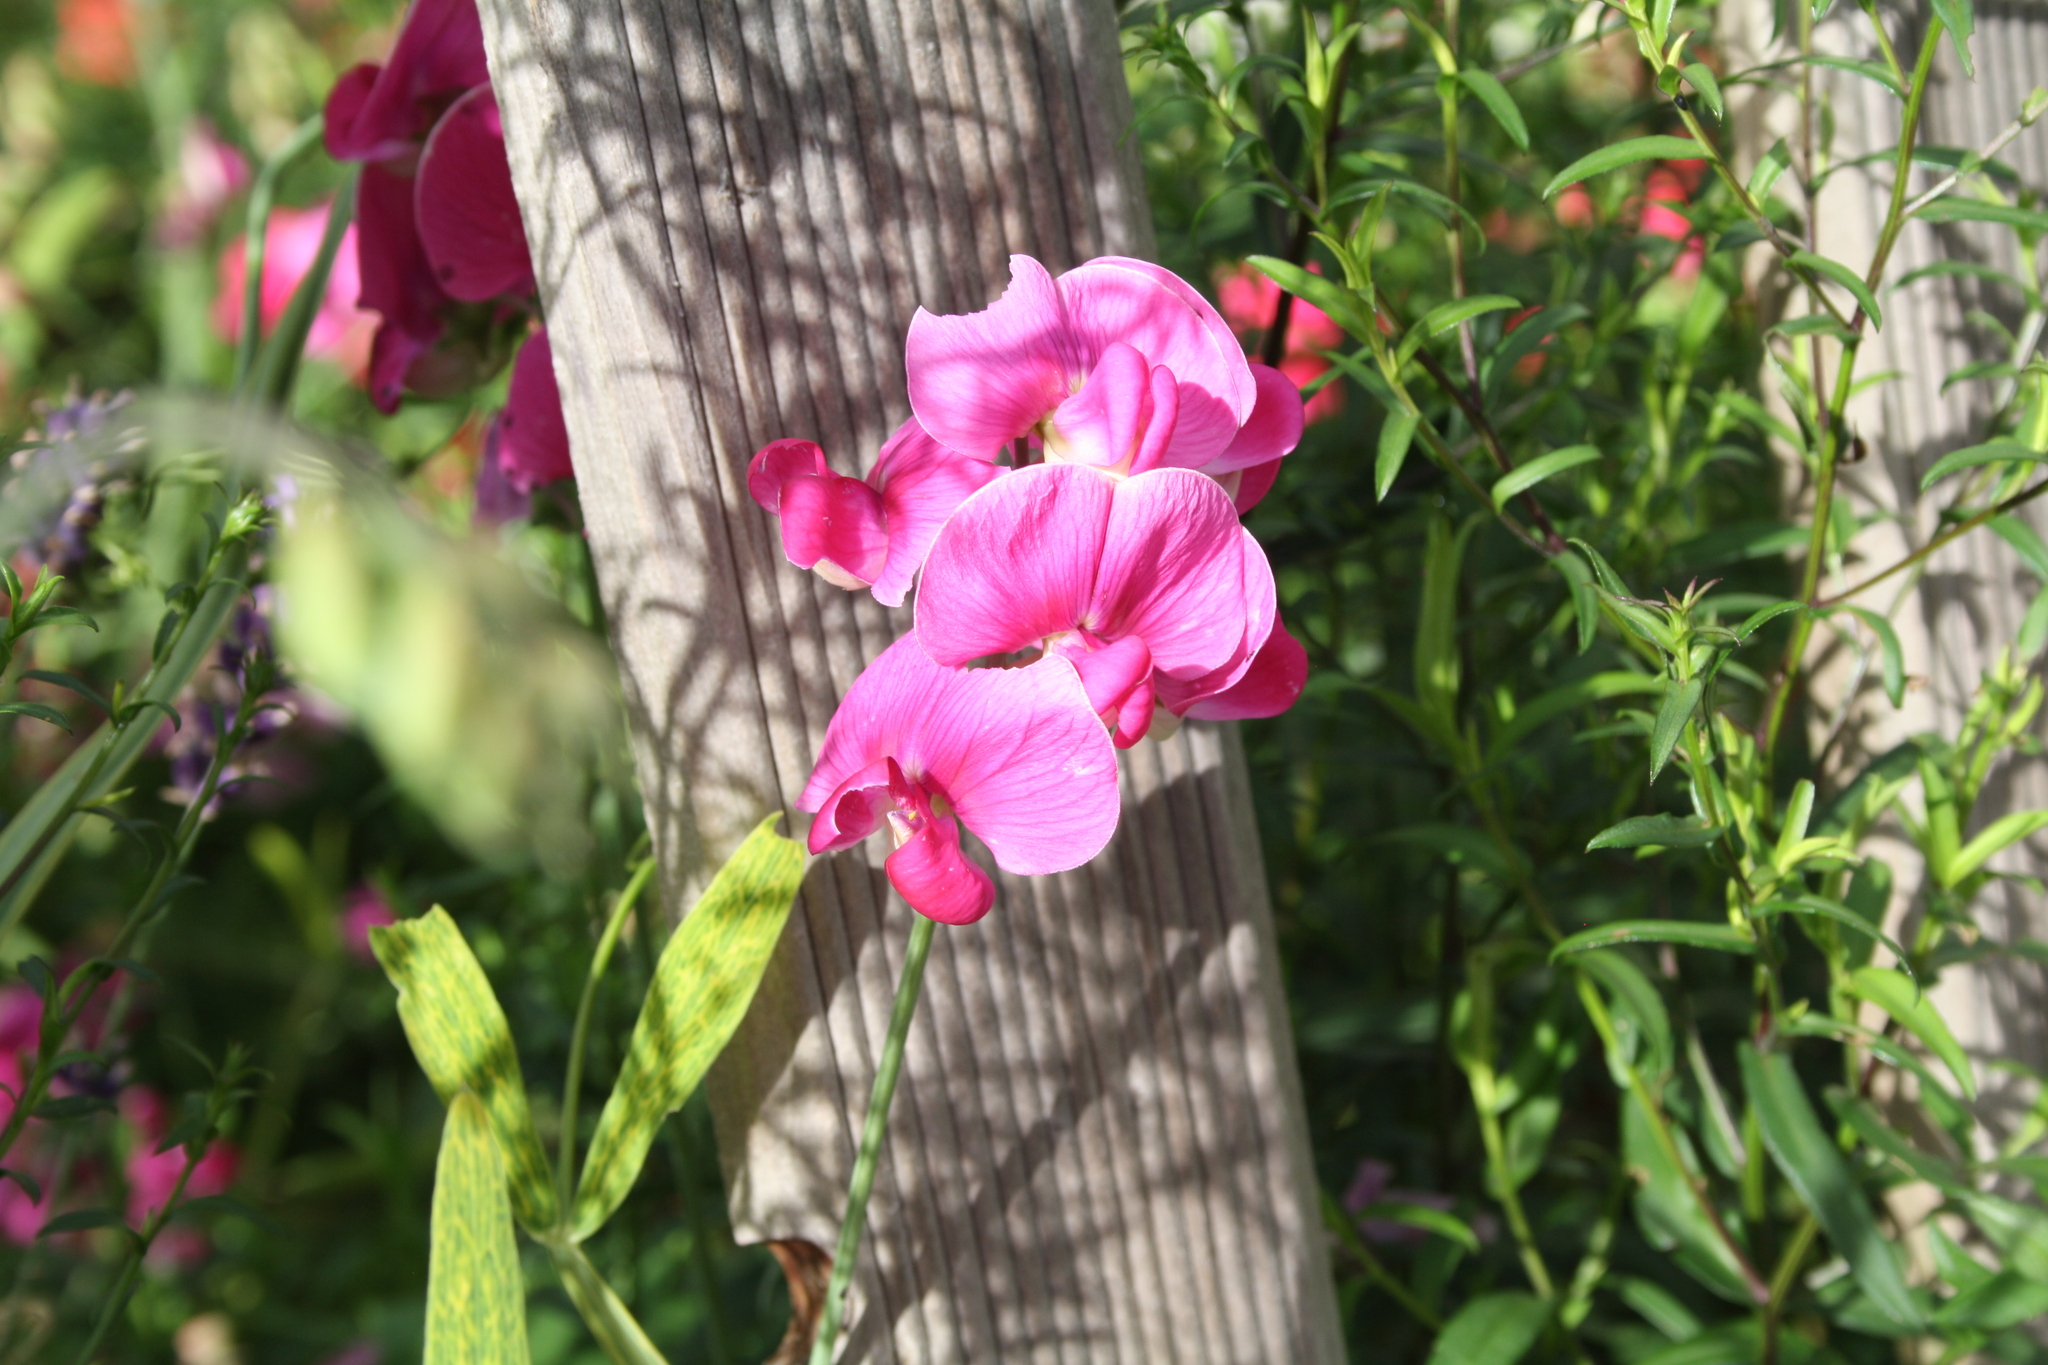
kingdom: Plantae
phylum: Tracheophyta
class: Magnoliopsida
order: Fabales
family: Fabaceae
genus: Lathyrus
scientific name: Lathyrus latifolius
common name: Perennial pea
